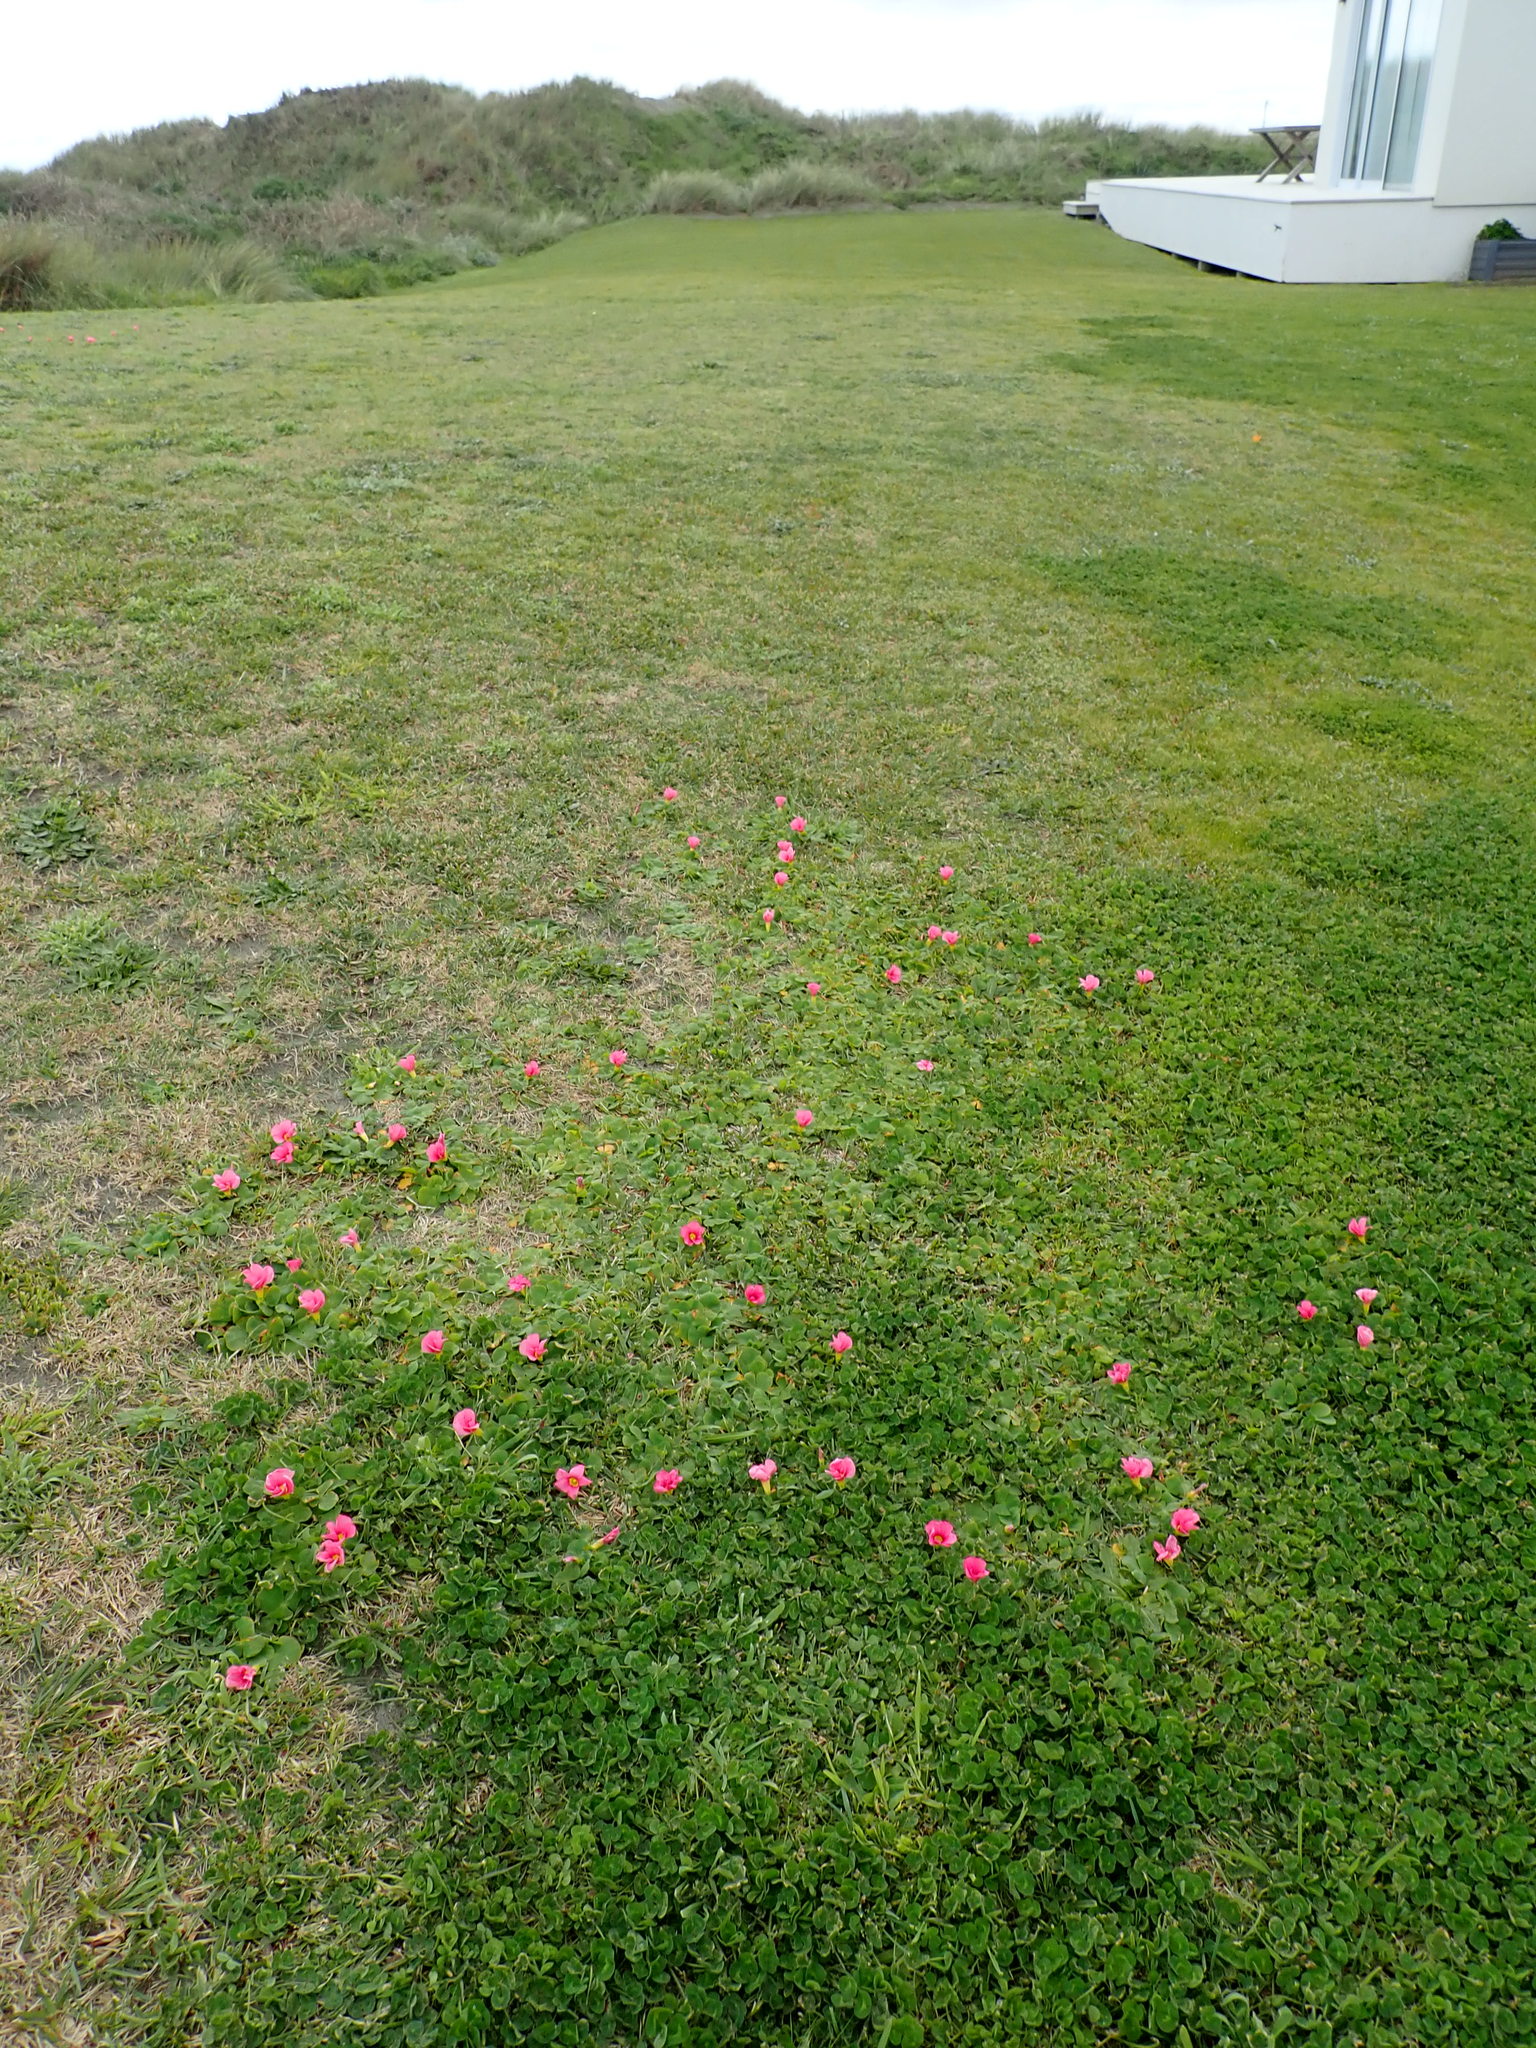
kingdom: Plantae
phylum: Tracheophyta
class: Magnoliopsida
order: Oxalidales
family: Oxalidaceae
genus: Oxalis
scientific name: Oxalis purpurea
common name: Purple woodsorrel
